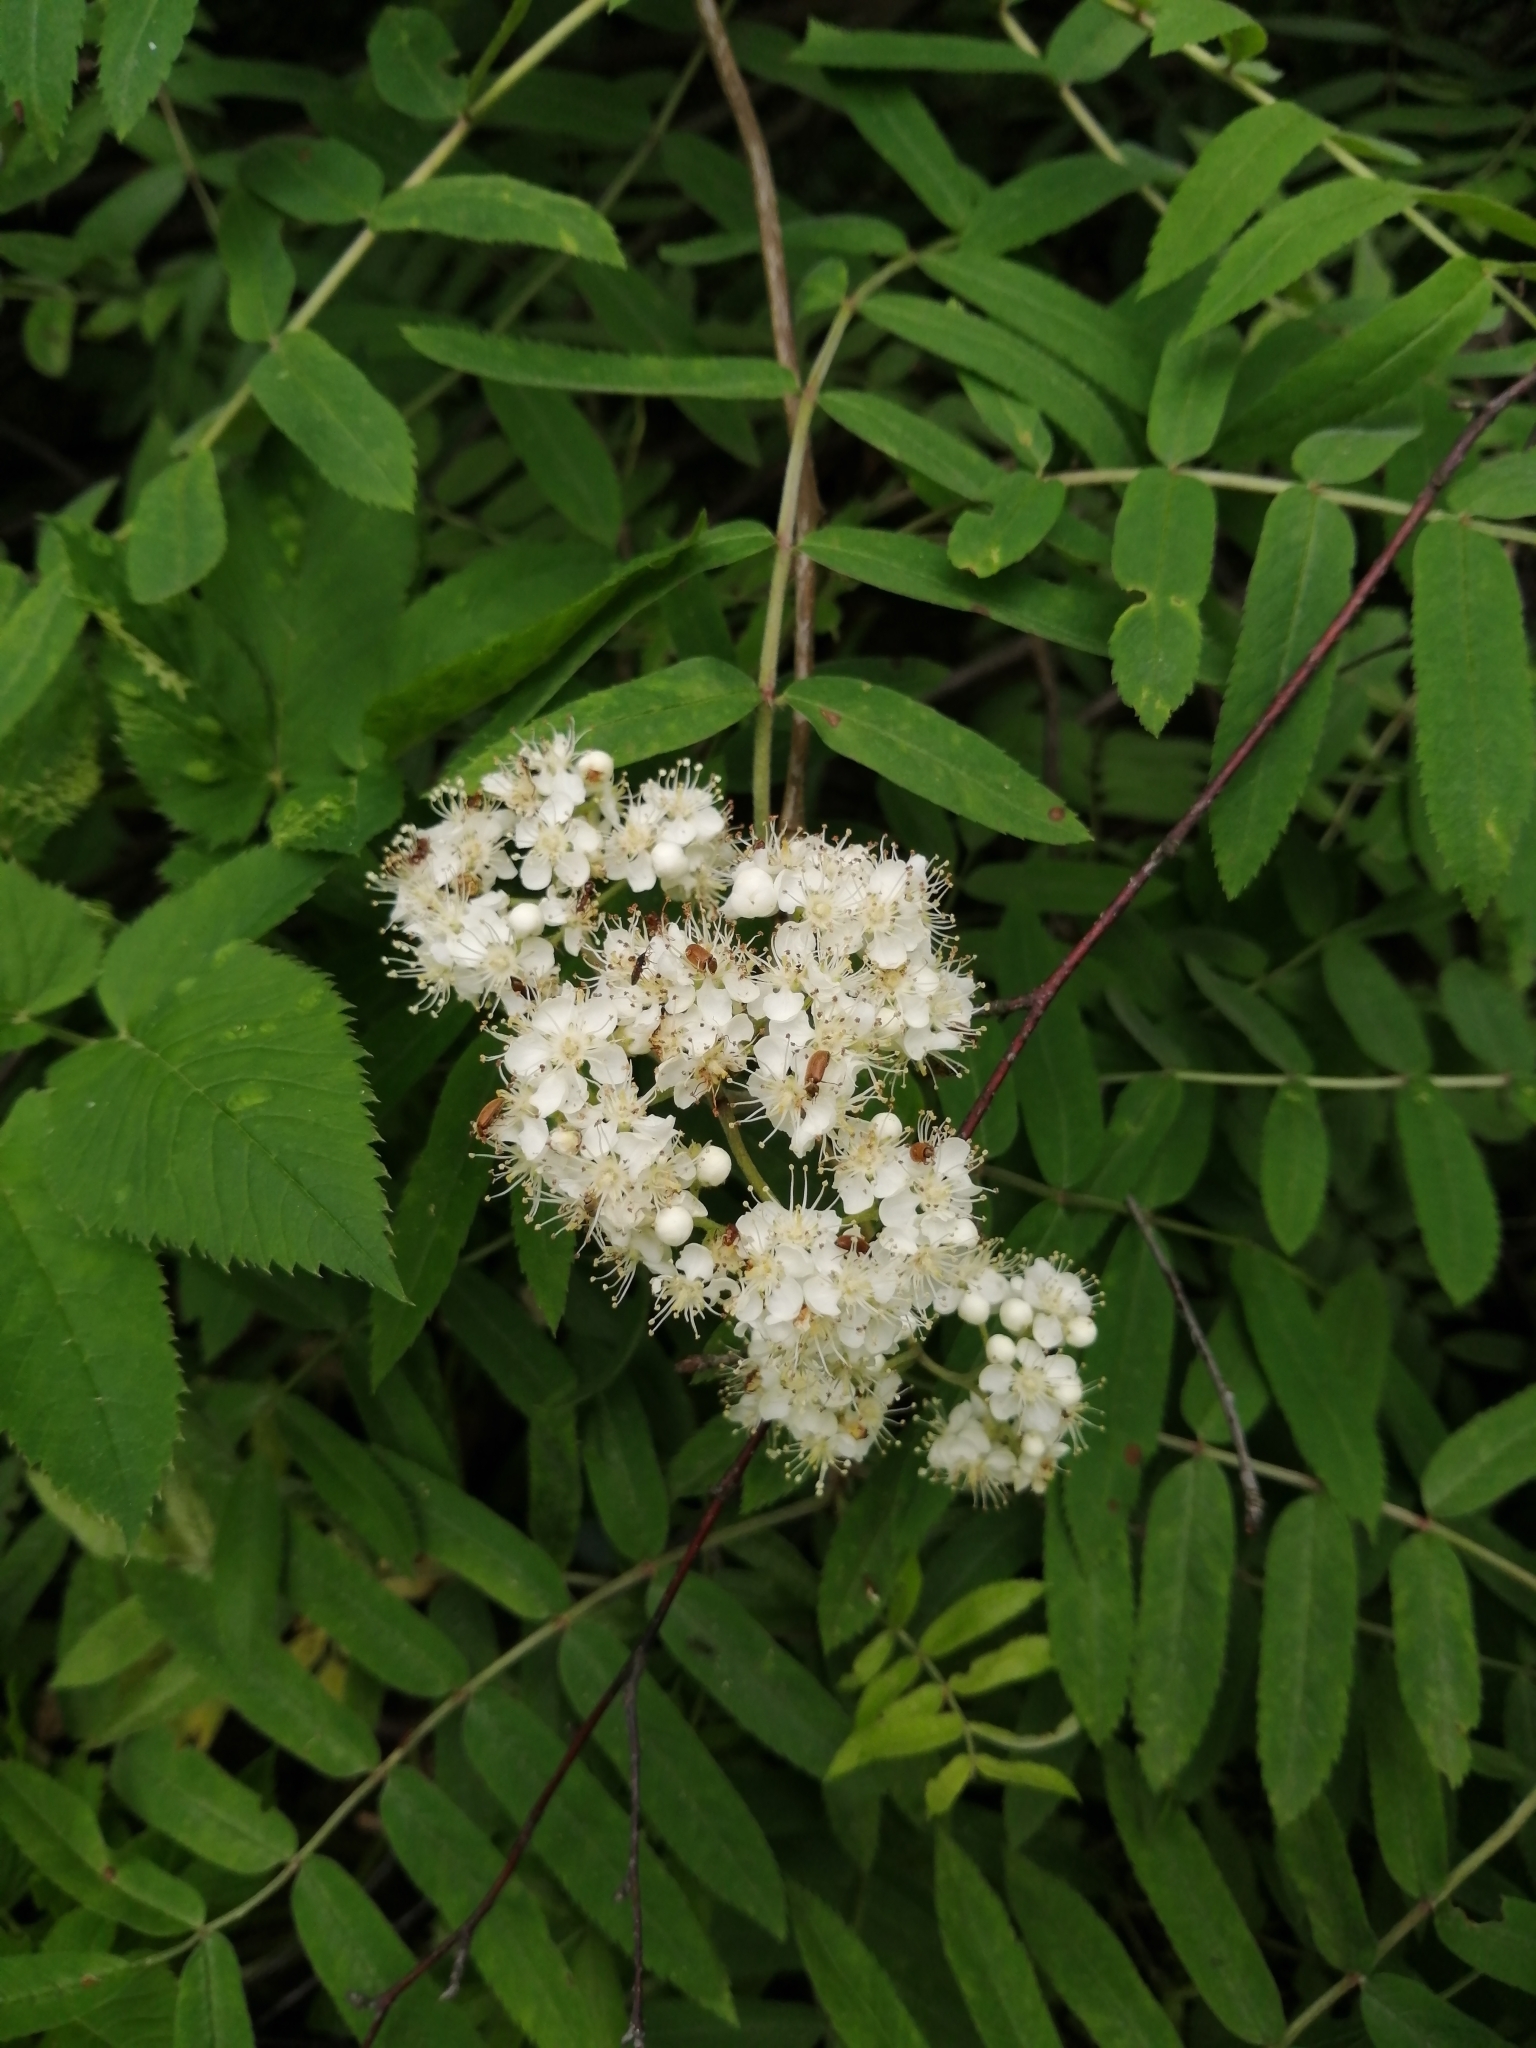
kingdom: Plantae
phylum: Tracheophyta
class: Magnoliopsida
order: Rosales
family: Rosaceae
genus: Sorbus
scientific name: Sorbus aucuparia
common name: Rowan
